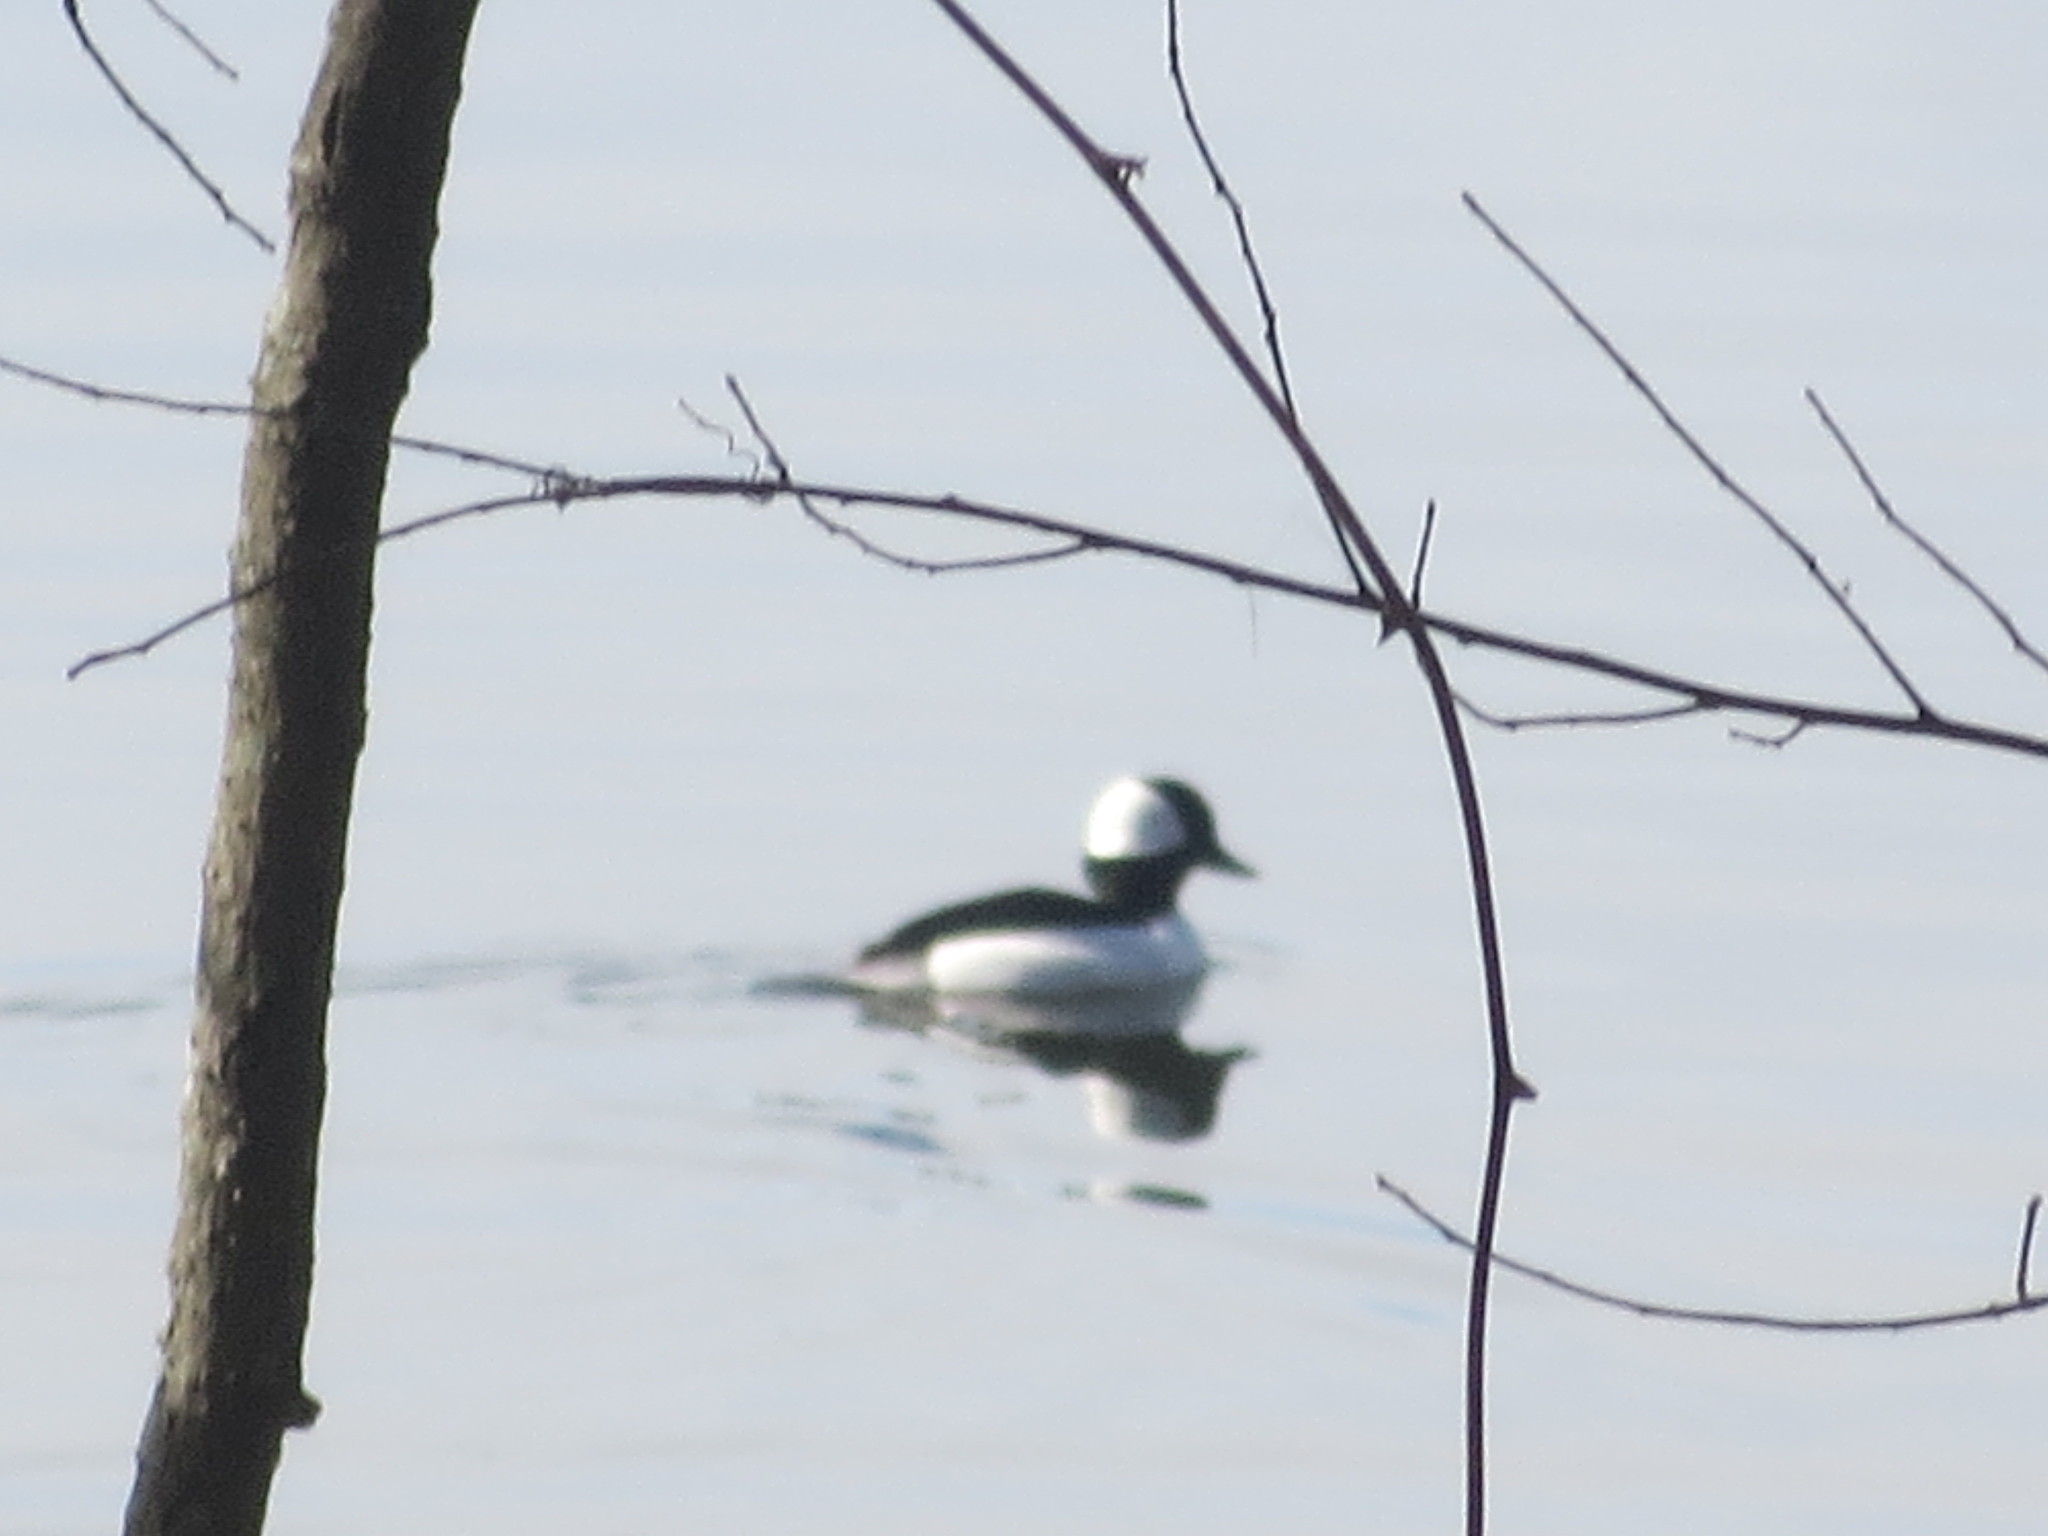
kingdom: Animalia
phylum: Chordata
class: Aves
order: Anseriformes
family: Anatidae
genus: Bucephala
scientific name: Bucephala albeola
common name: Bufflehead
